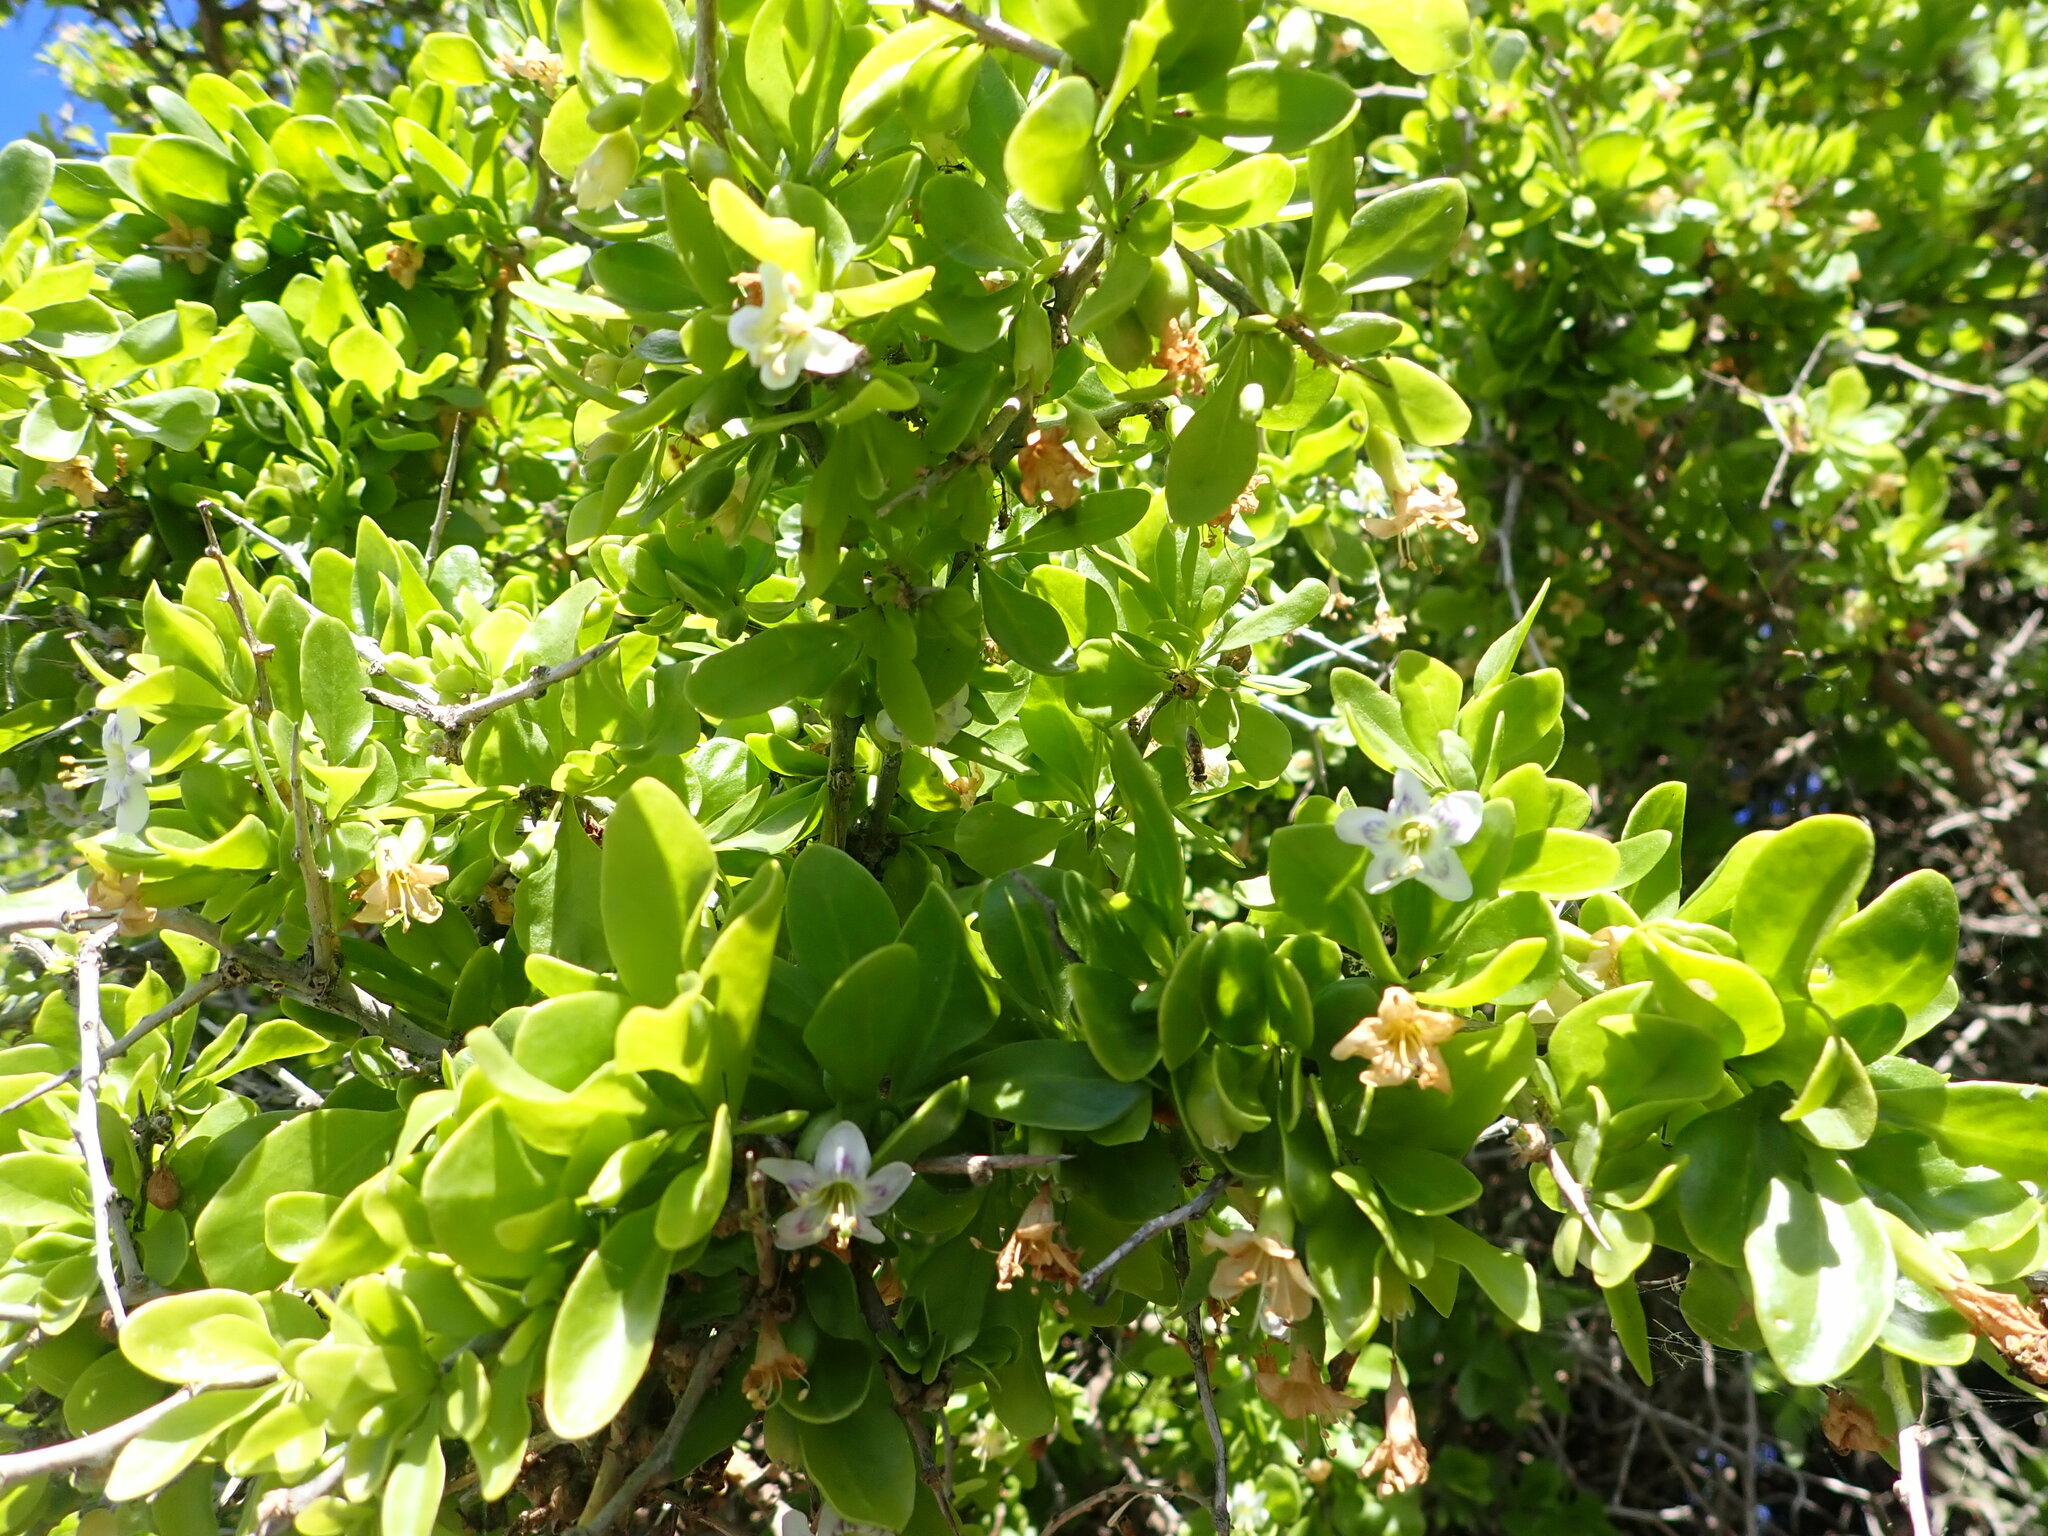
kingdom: Plantae
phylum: Tracheophyta
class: Magnoliopsida
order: Solanales
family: Solanaceae
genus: Lycium
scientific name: Lycium ferocissimum
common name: African boxthorn
